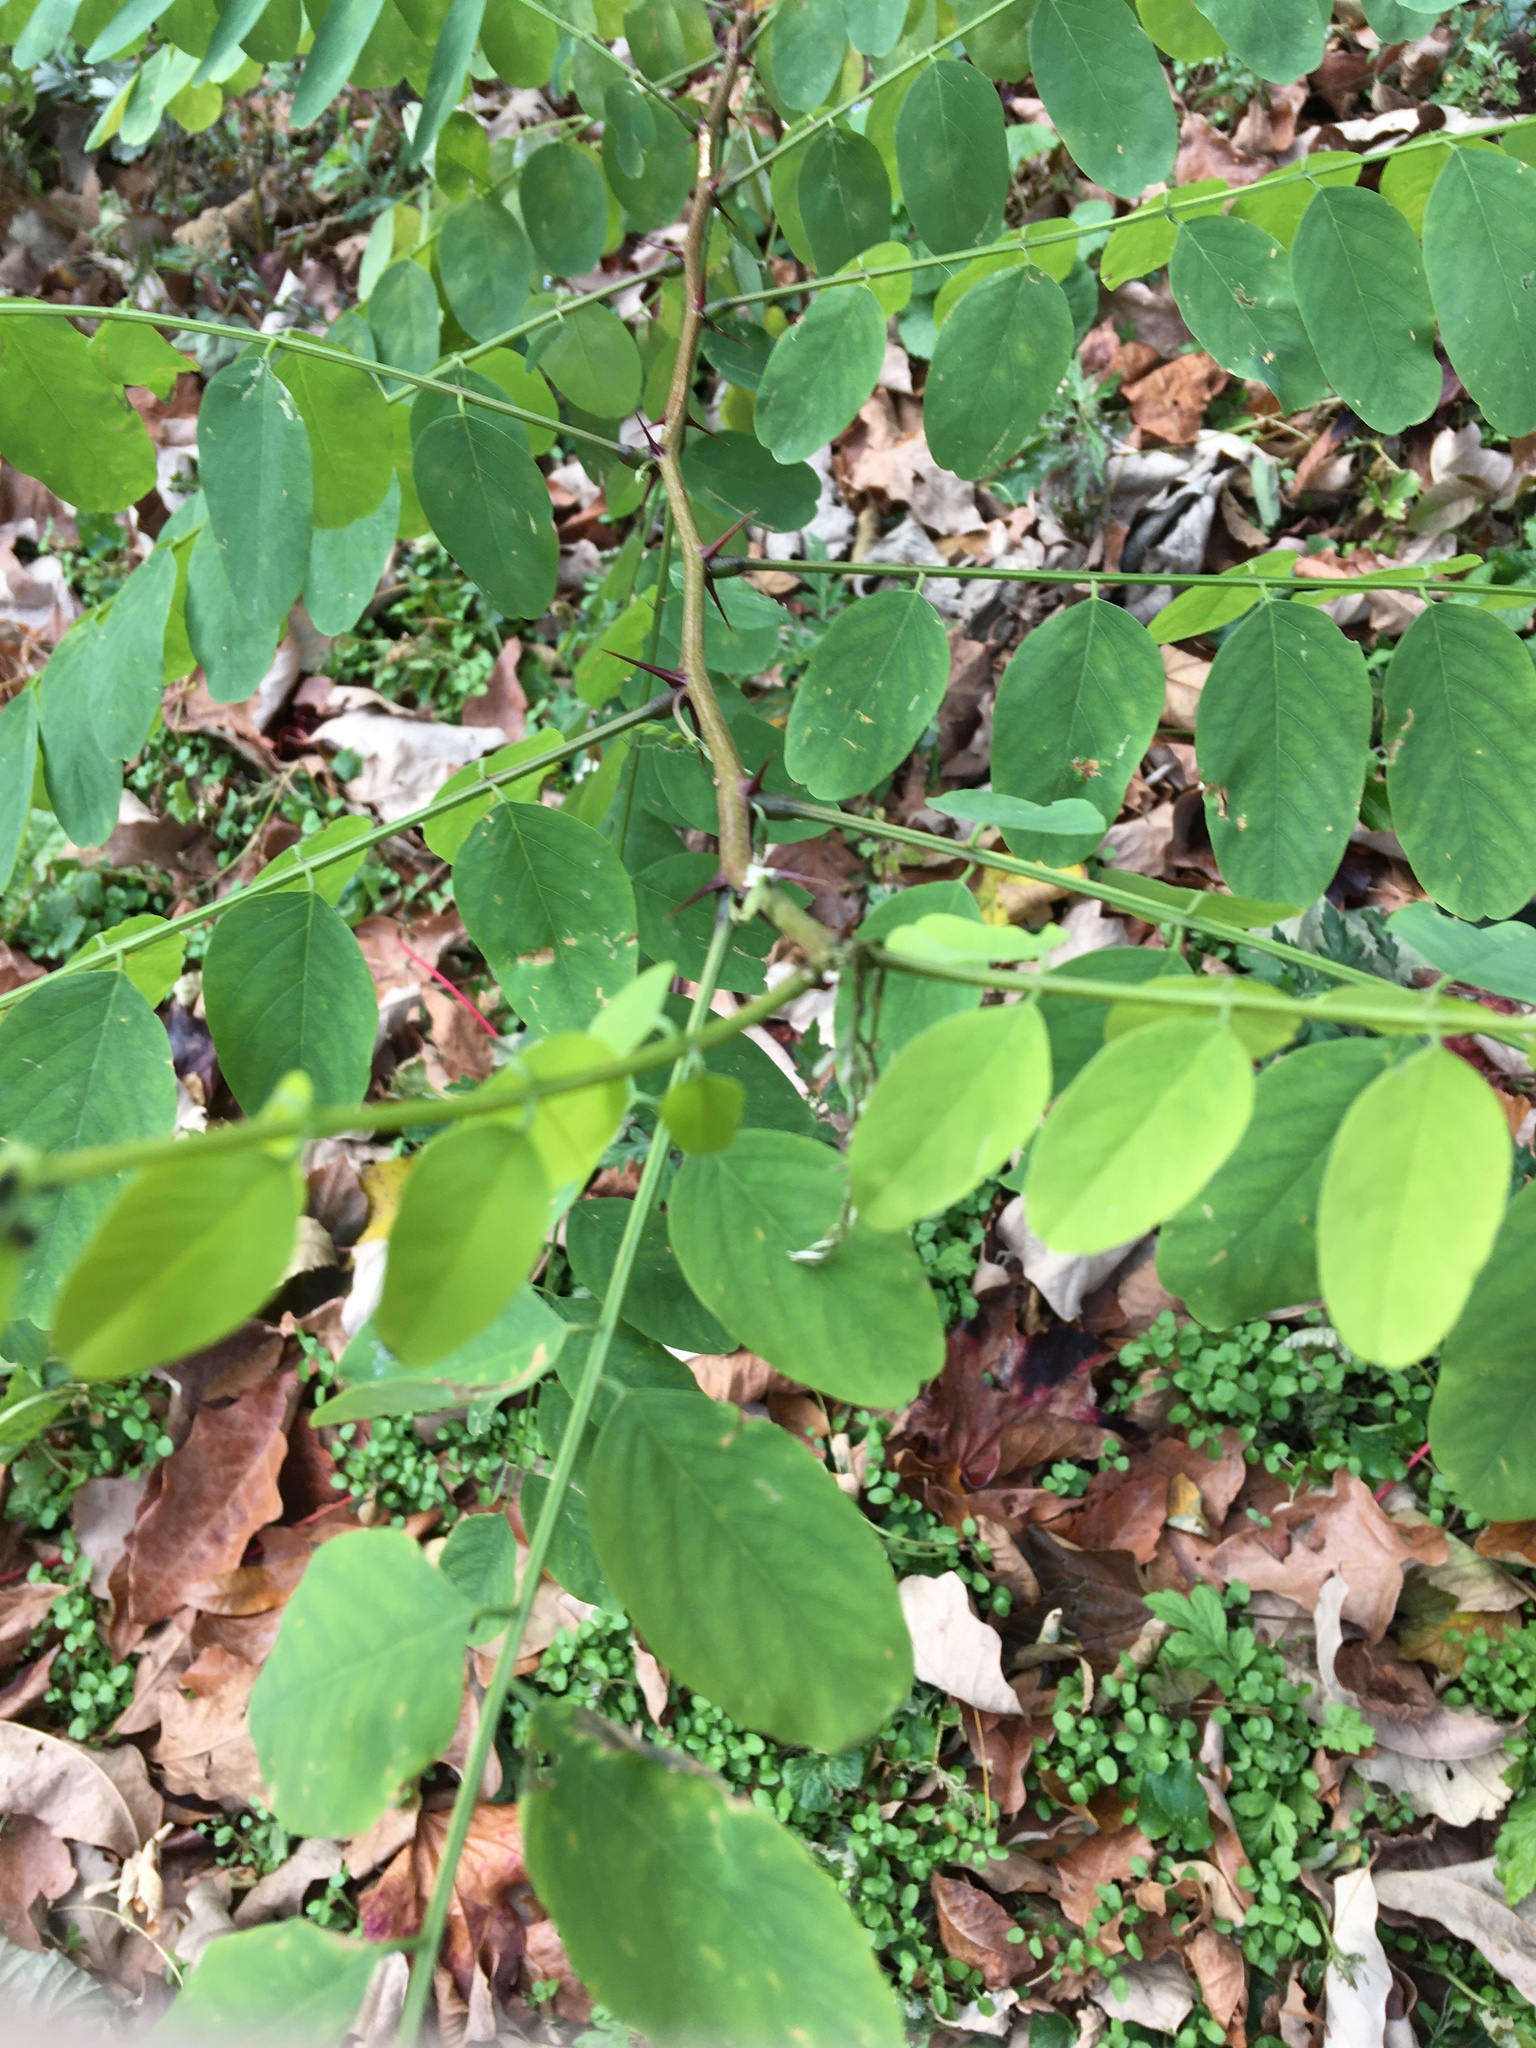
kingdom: Plantae
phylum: Tracheophyta
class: Magnoliopsida
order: Fabales
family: Fabaceae
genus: Robinia
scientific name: Robinia pseudoacacia
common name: Black locust
